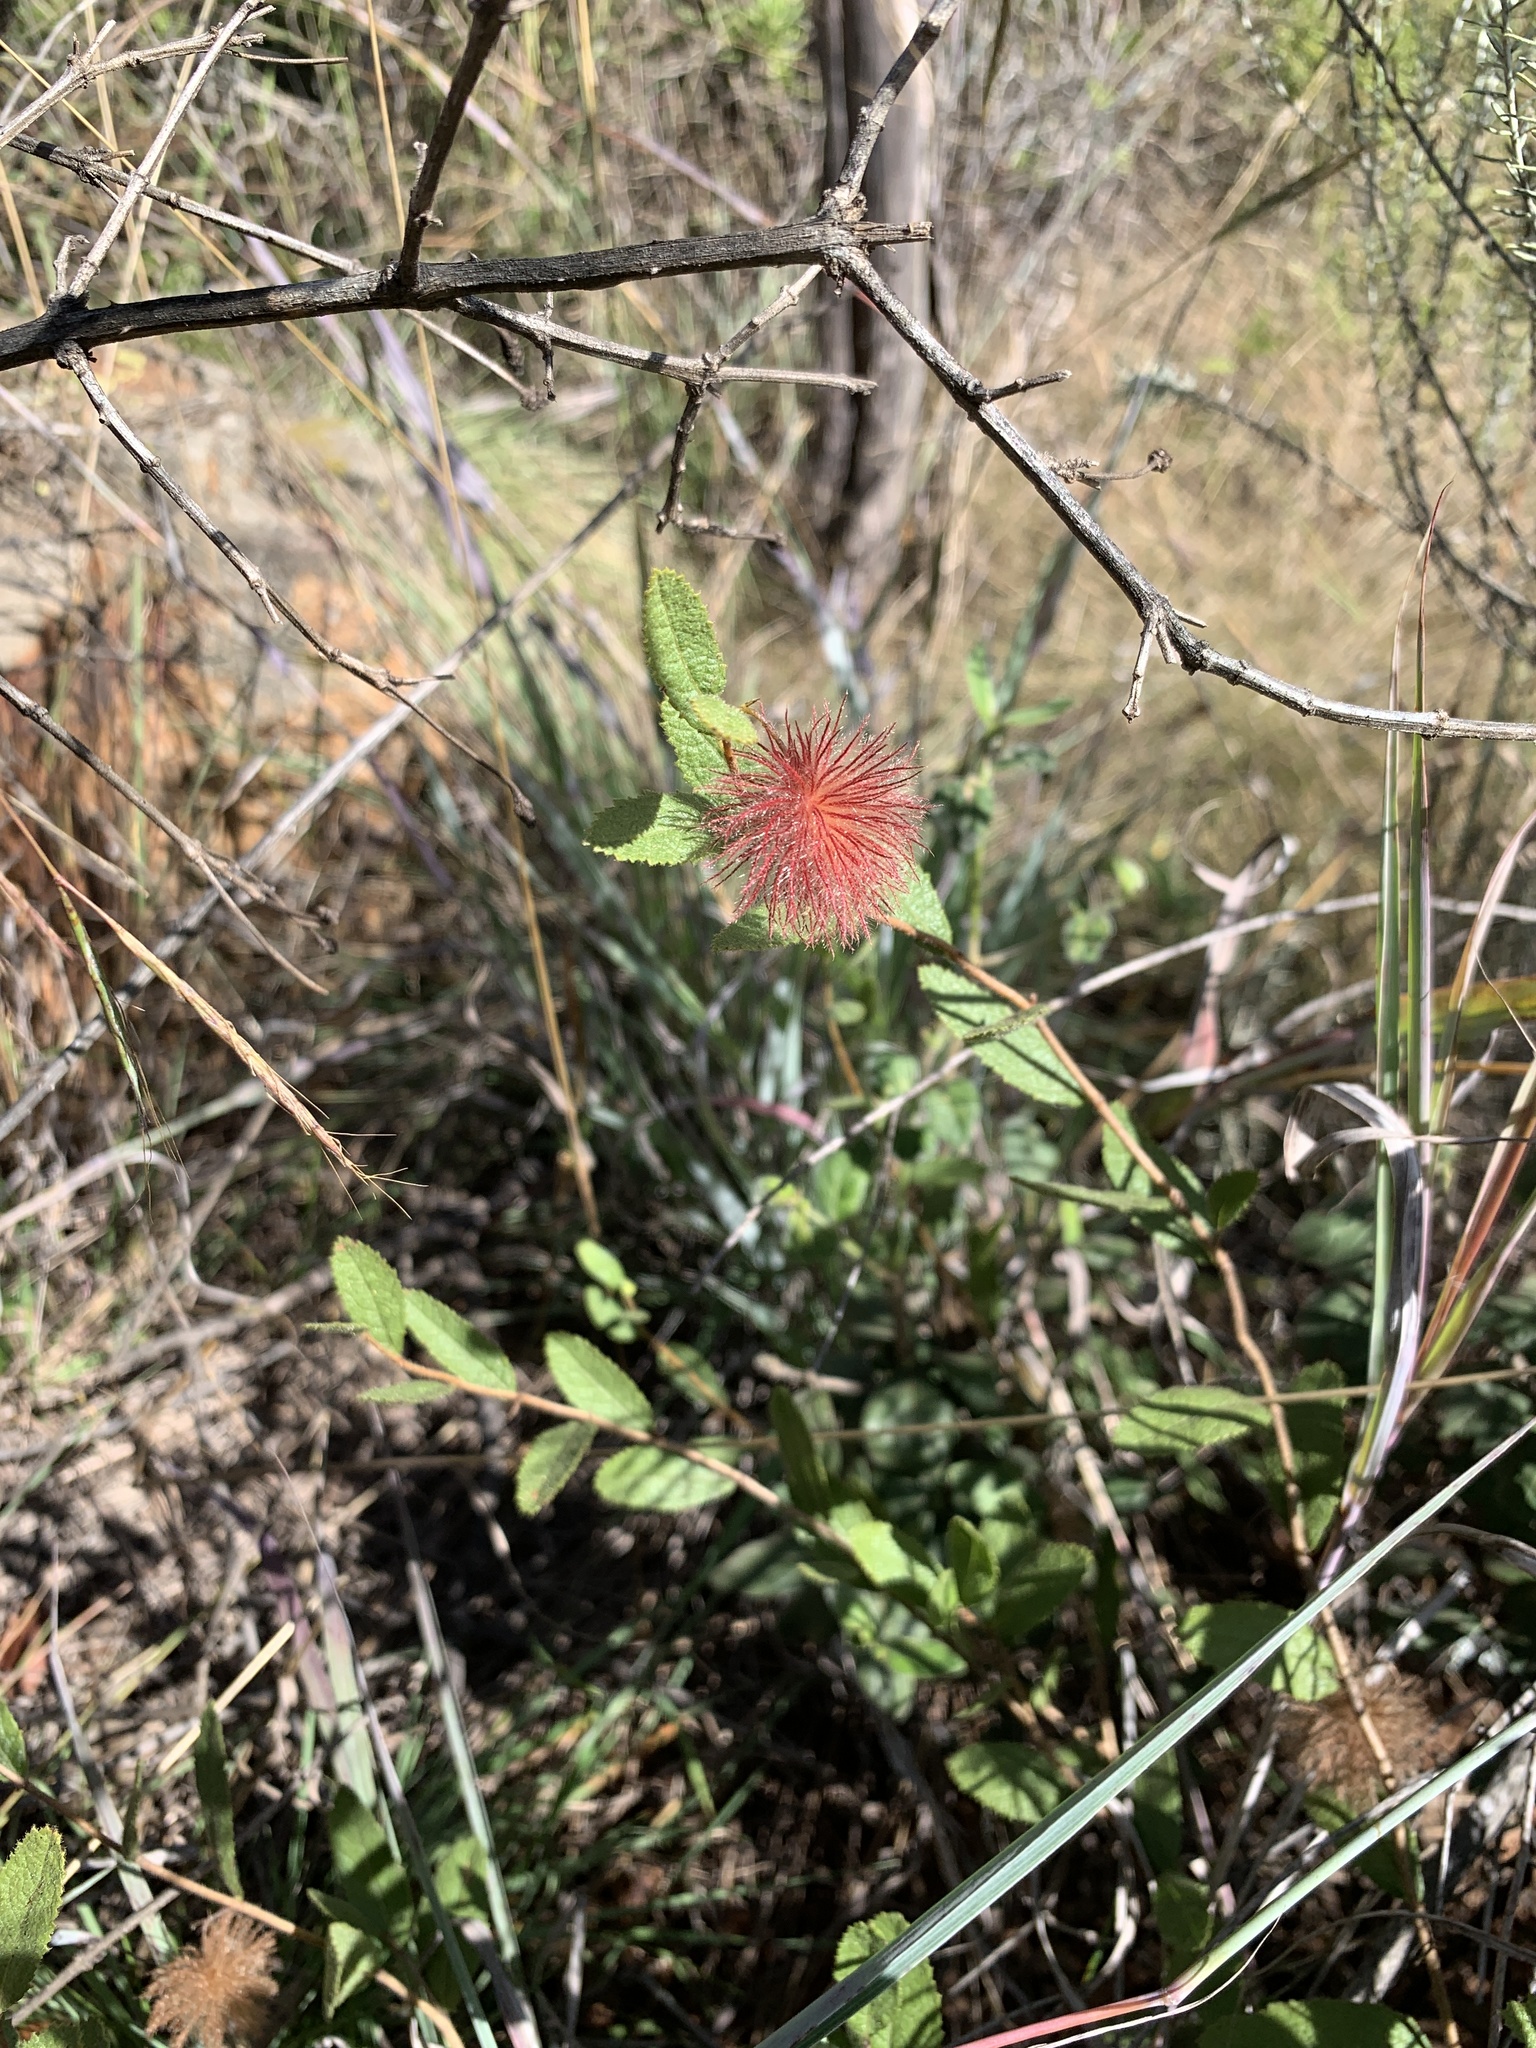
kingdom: Plantae
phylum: Tracheophyta
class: Magnoliopsida
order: Malvales
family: Malvaceae
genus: Triumfetta
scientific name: Triumfetta sonderi
